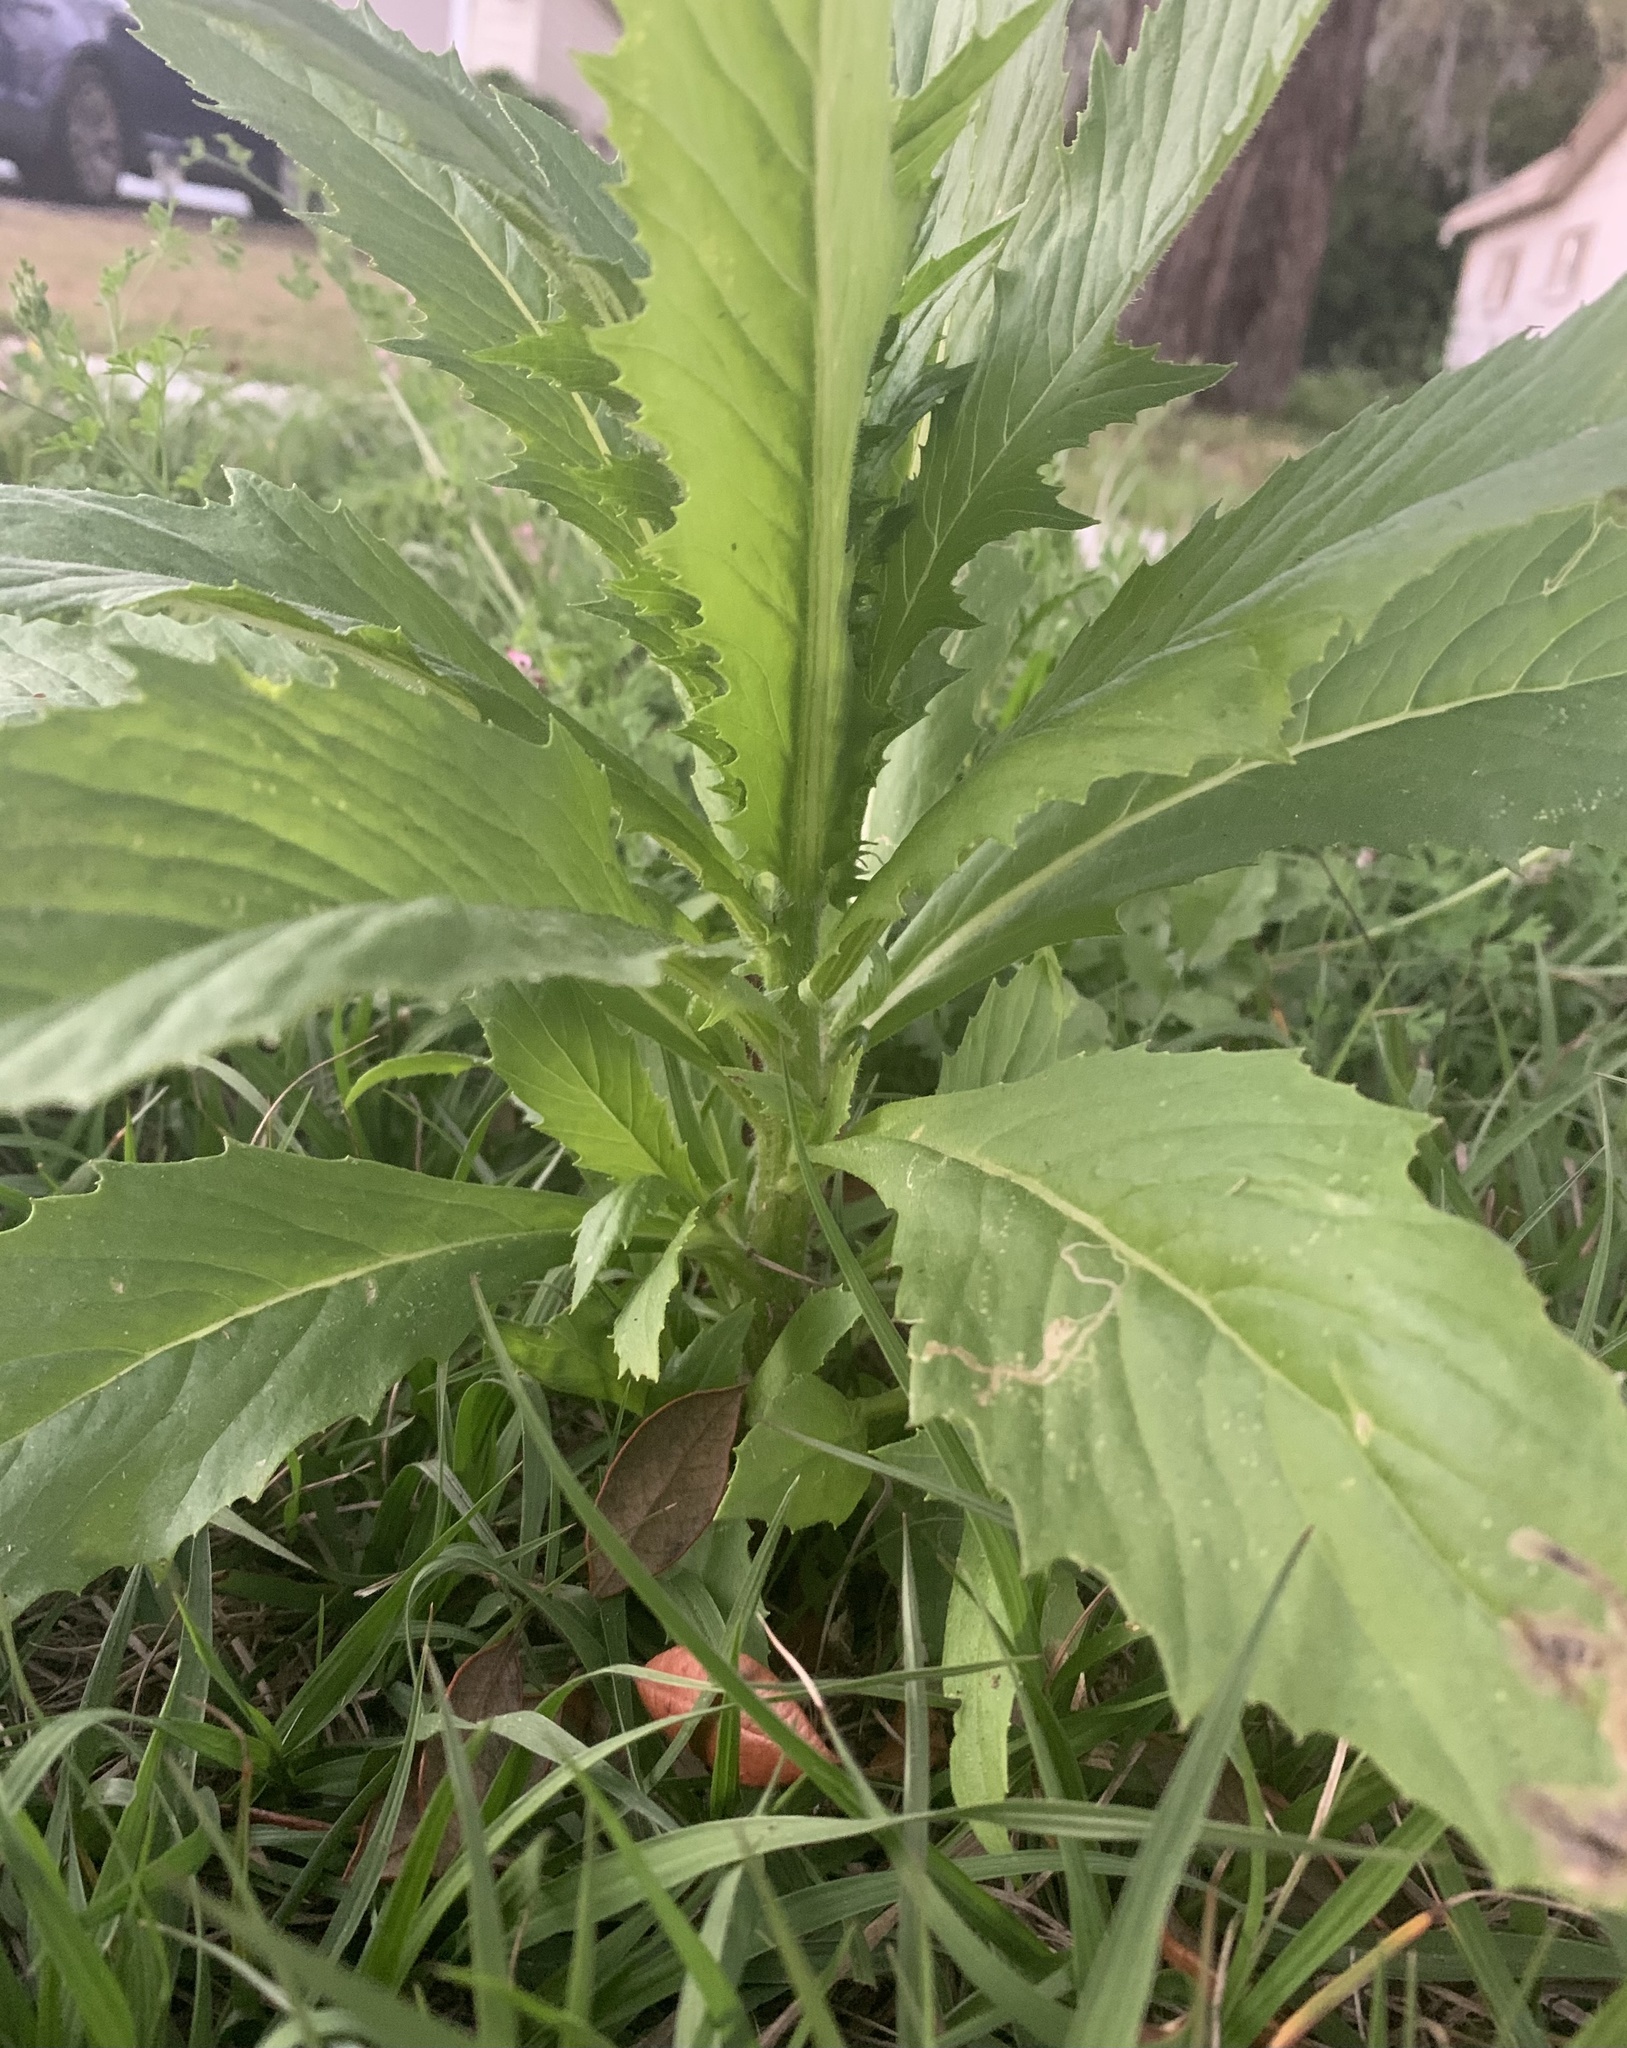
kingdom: Plantae
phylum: Tracheophyta
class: Magnoliopsida
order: Asterales
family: Asteraceae
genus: Erechtites
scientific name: Erechtites hieraciifolius
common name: American burnweed
